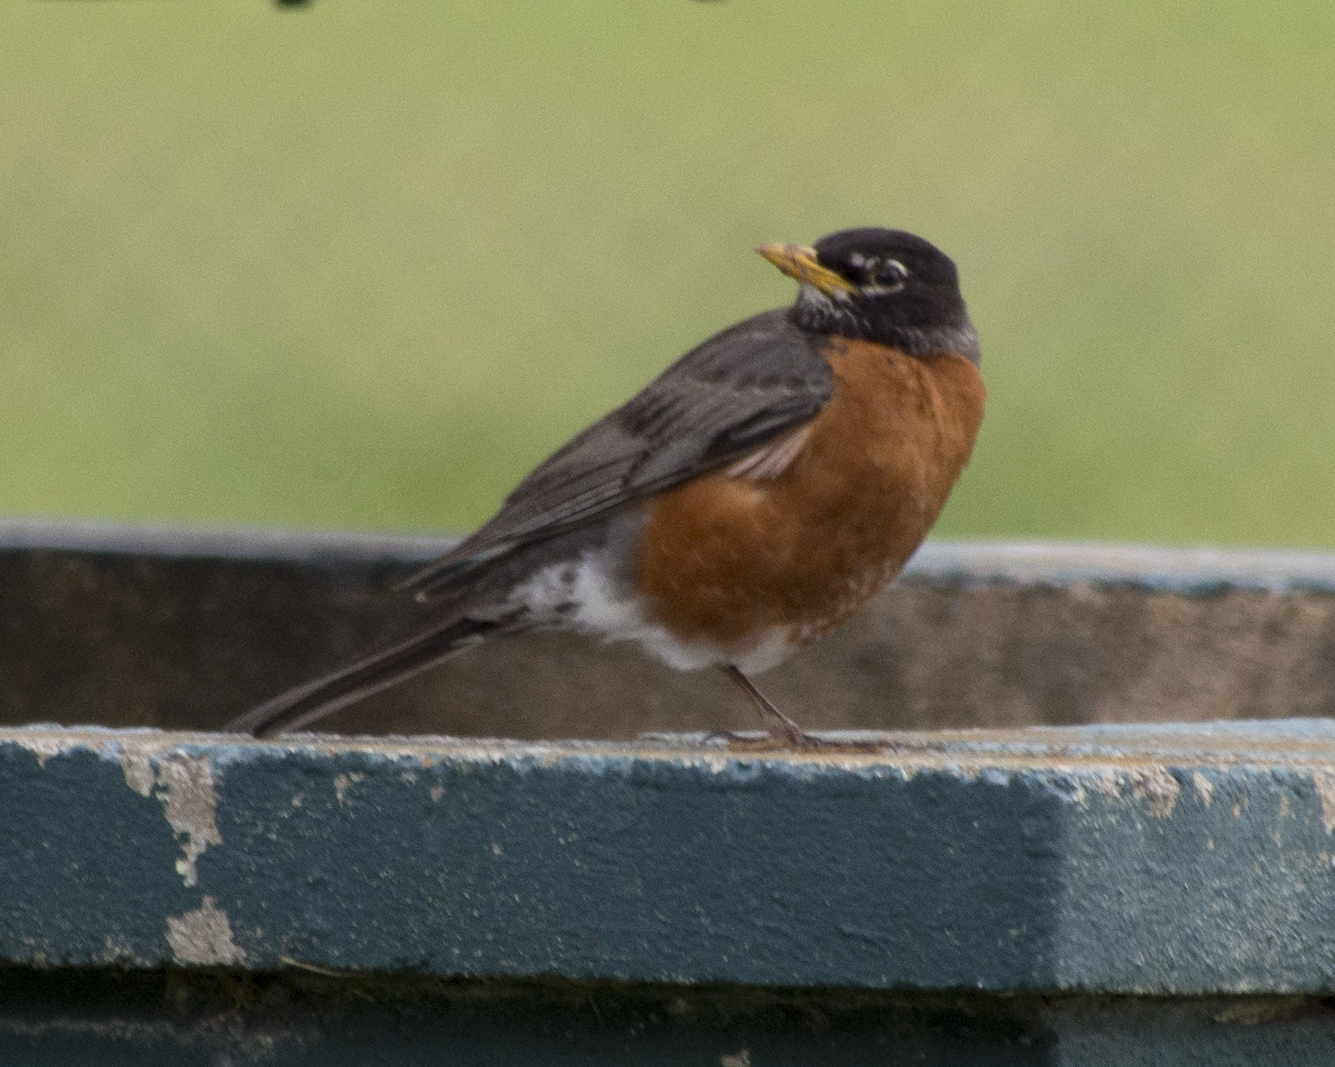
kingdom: Animalia
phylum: Chordata
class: Aves
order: Passeriformes
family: Turdidae
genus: Turdus
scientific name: Turdus migratorius
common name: American robin
